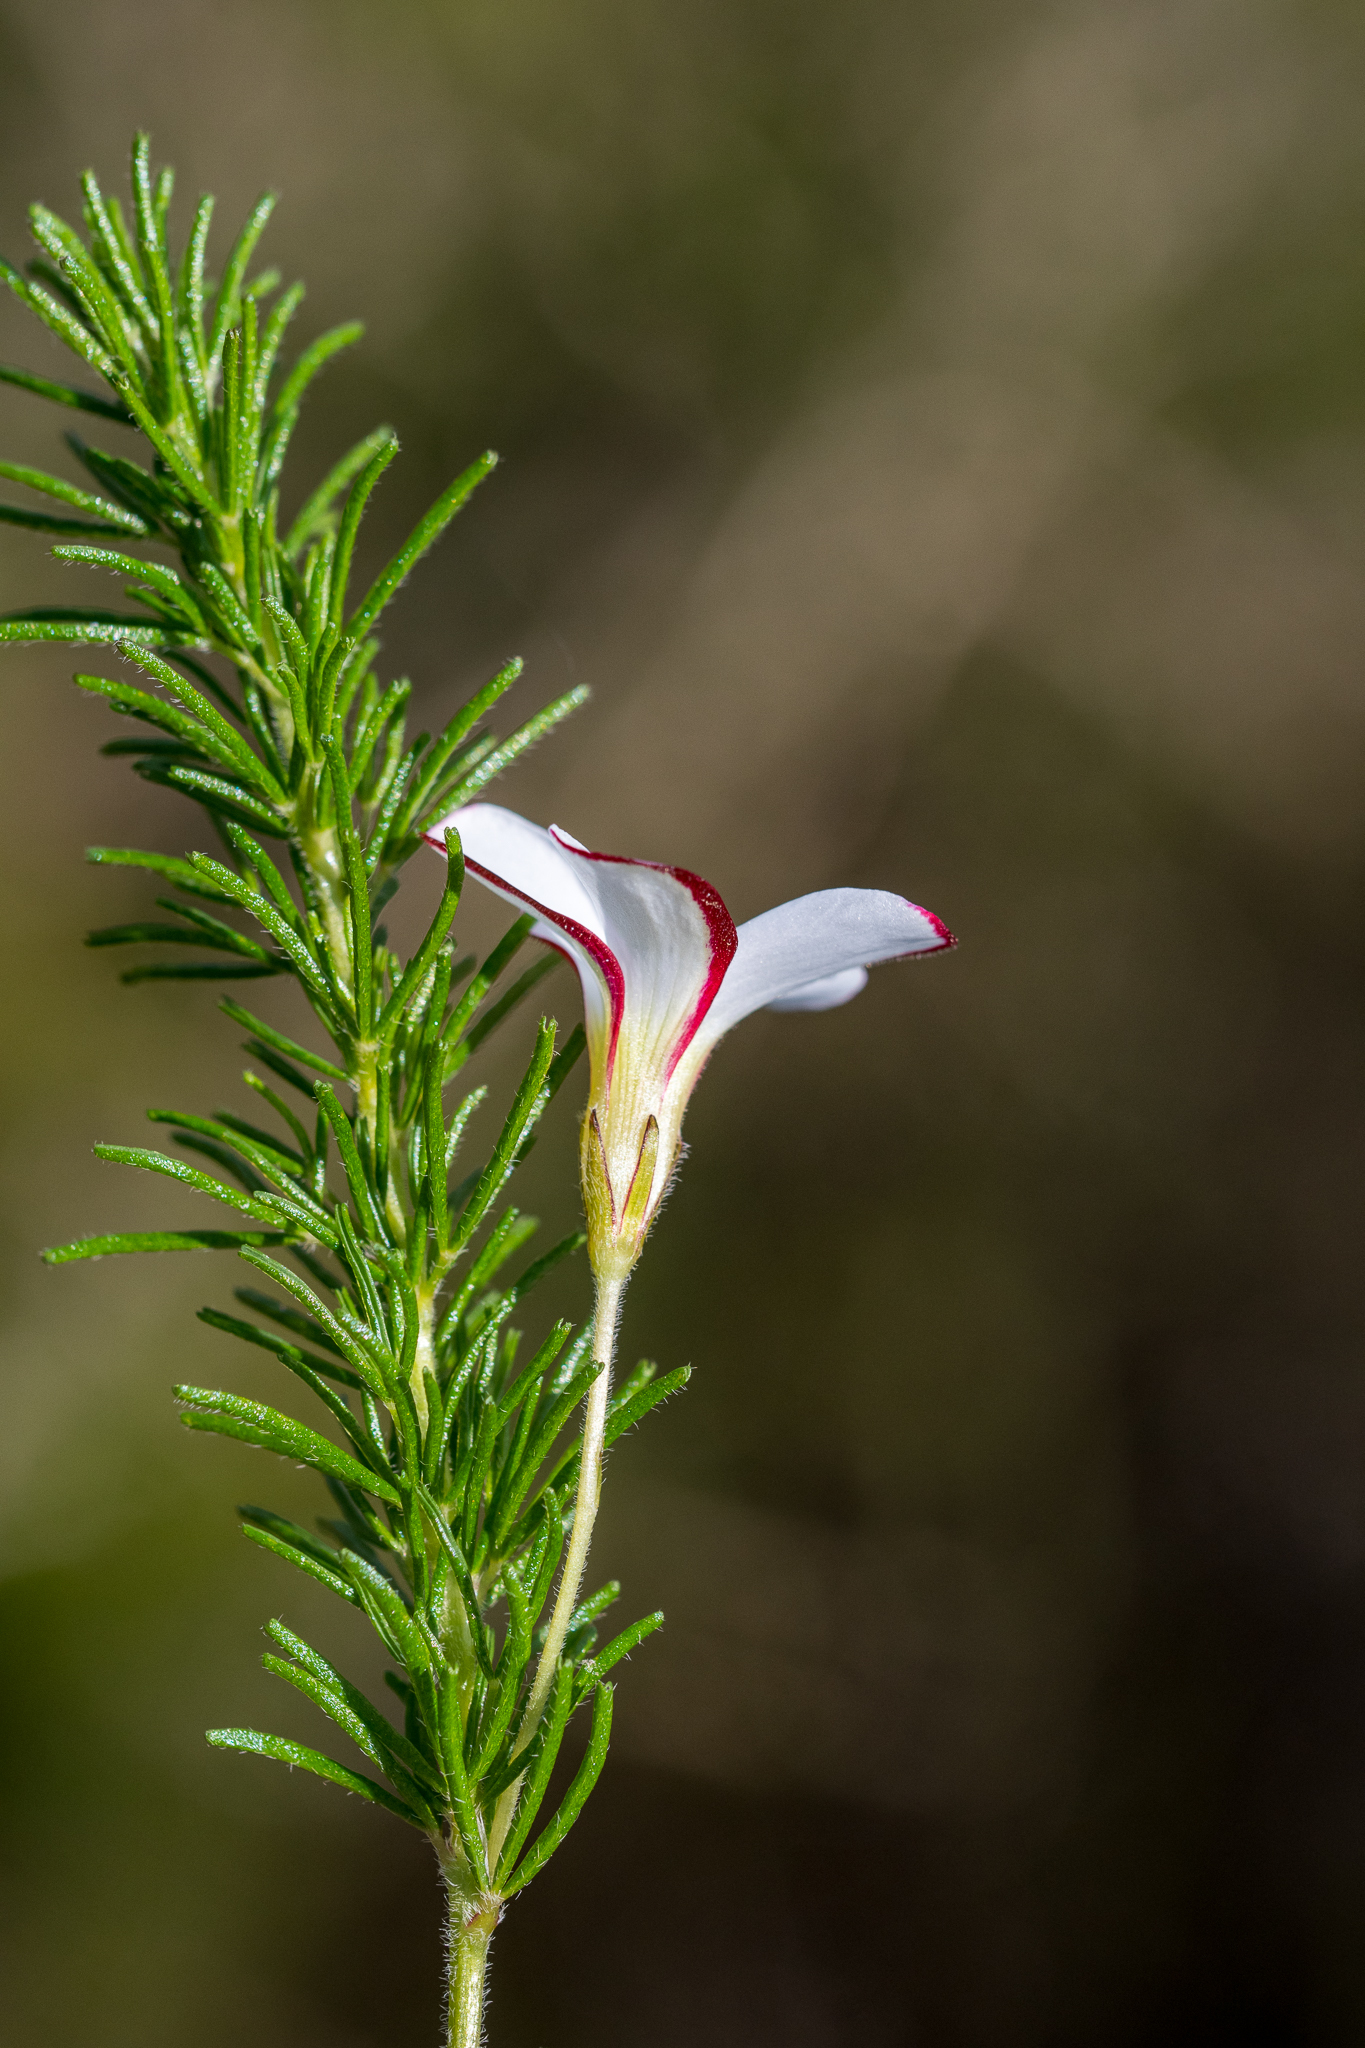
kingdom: Plantae
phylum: Tracheophyta
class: Magnoliopsida
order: Oxalidales
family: Oxalidaceae
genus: Oxalis
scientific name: Oxalis tenuifolia
